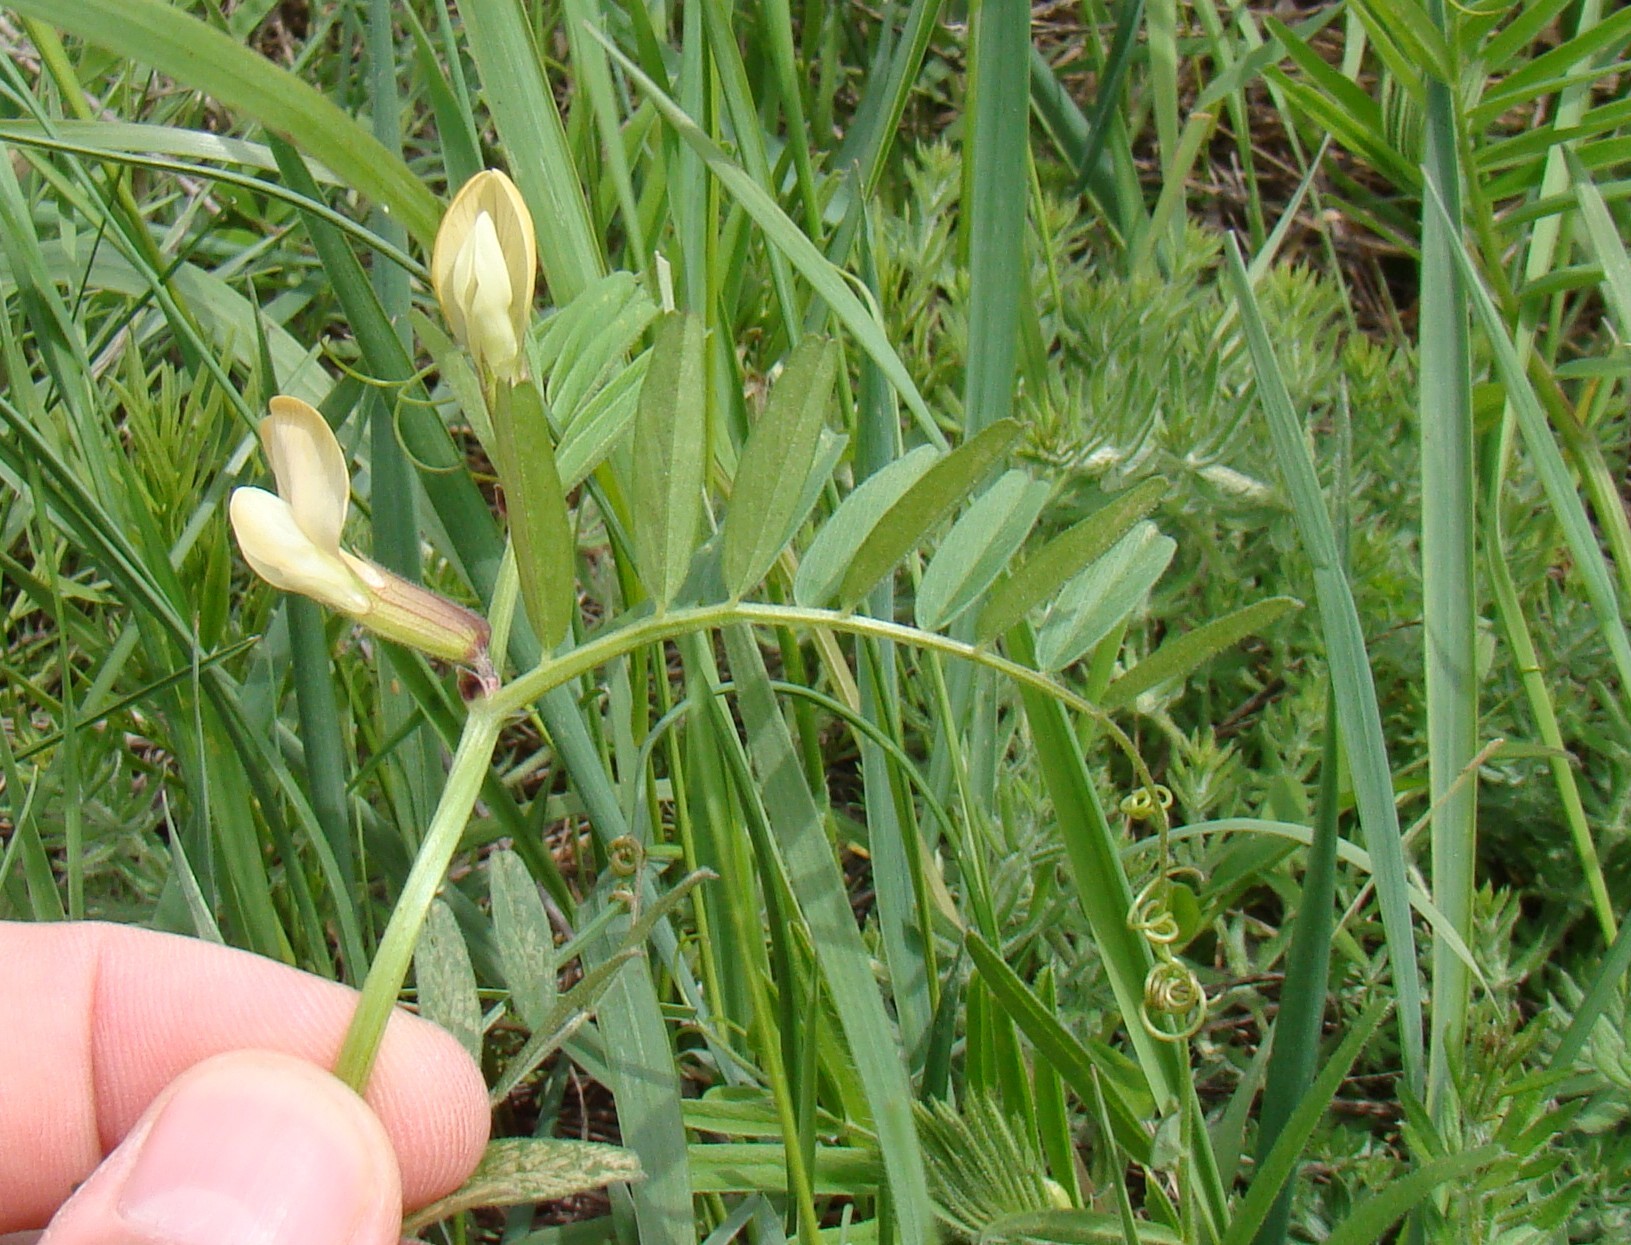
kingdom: Plantae
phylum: Tracheophyta
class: Magnoliopsida
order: Fabales
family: Fabaceae
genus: Vicia
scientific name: Vicia grandiflora
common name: Large yellow vetch
